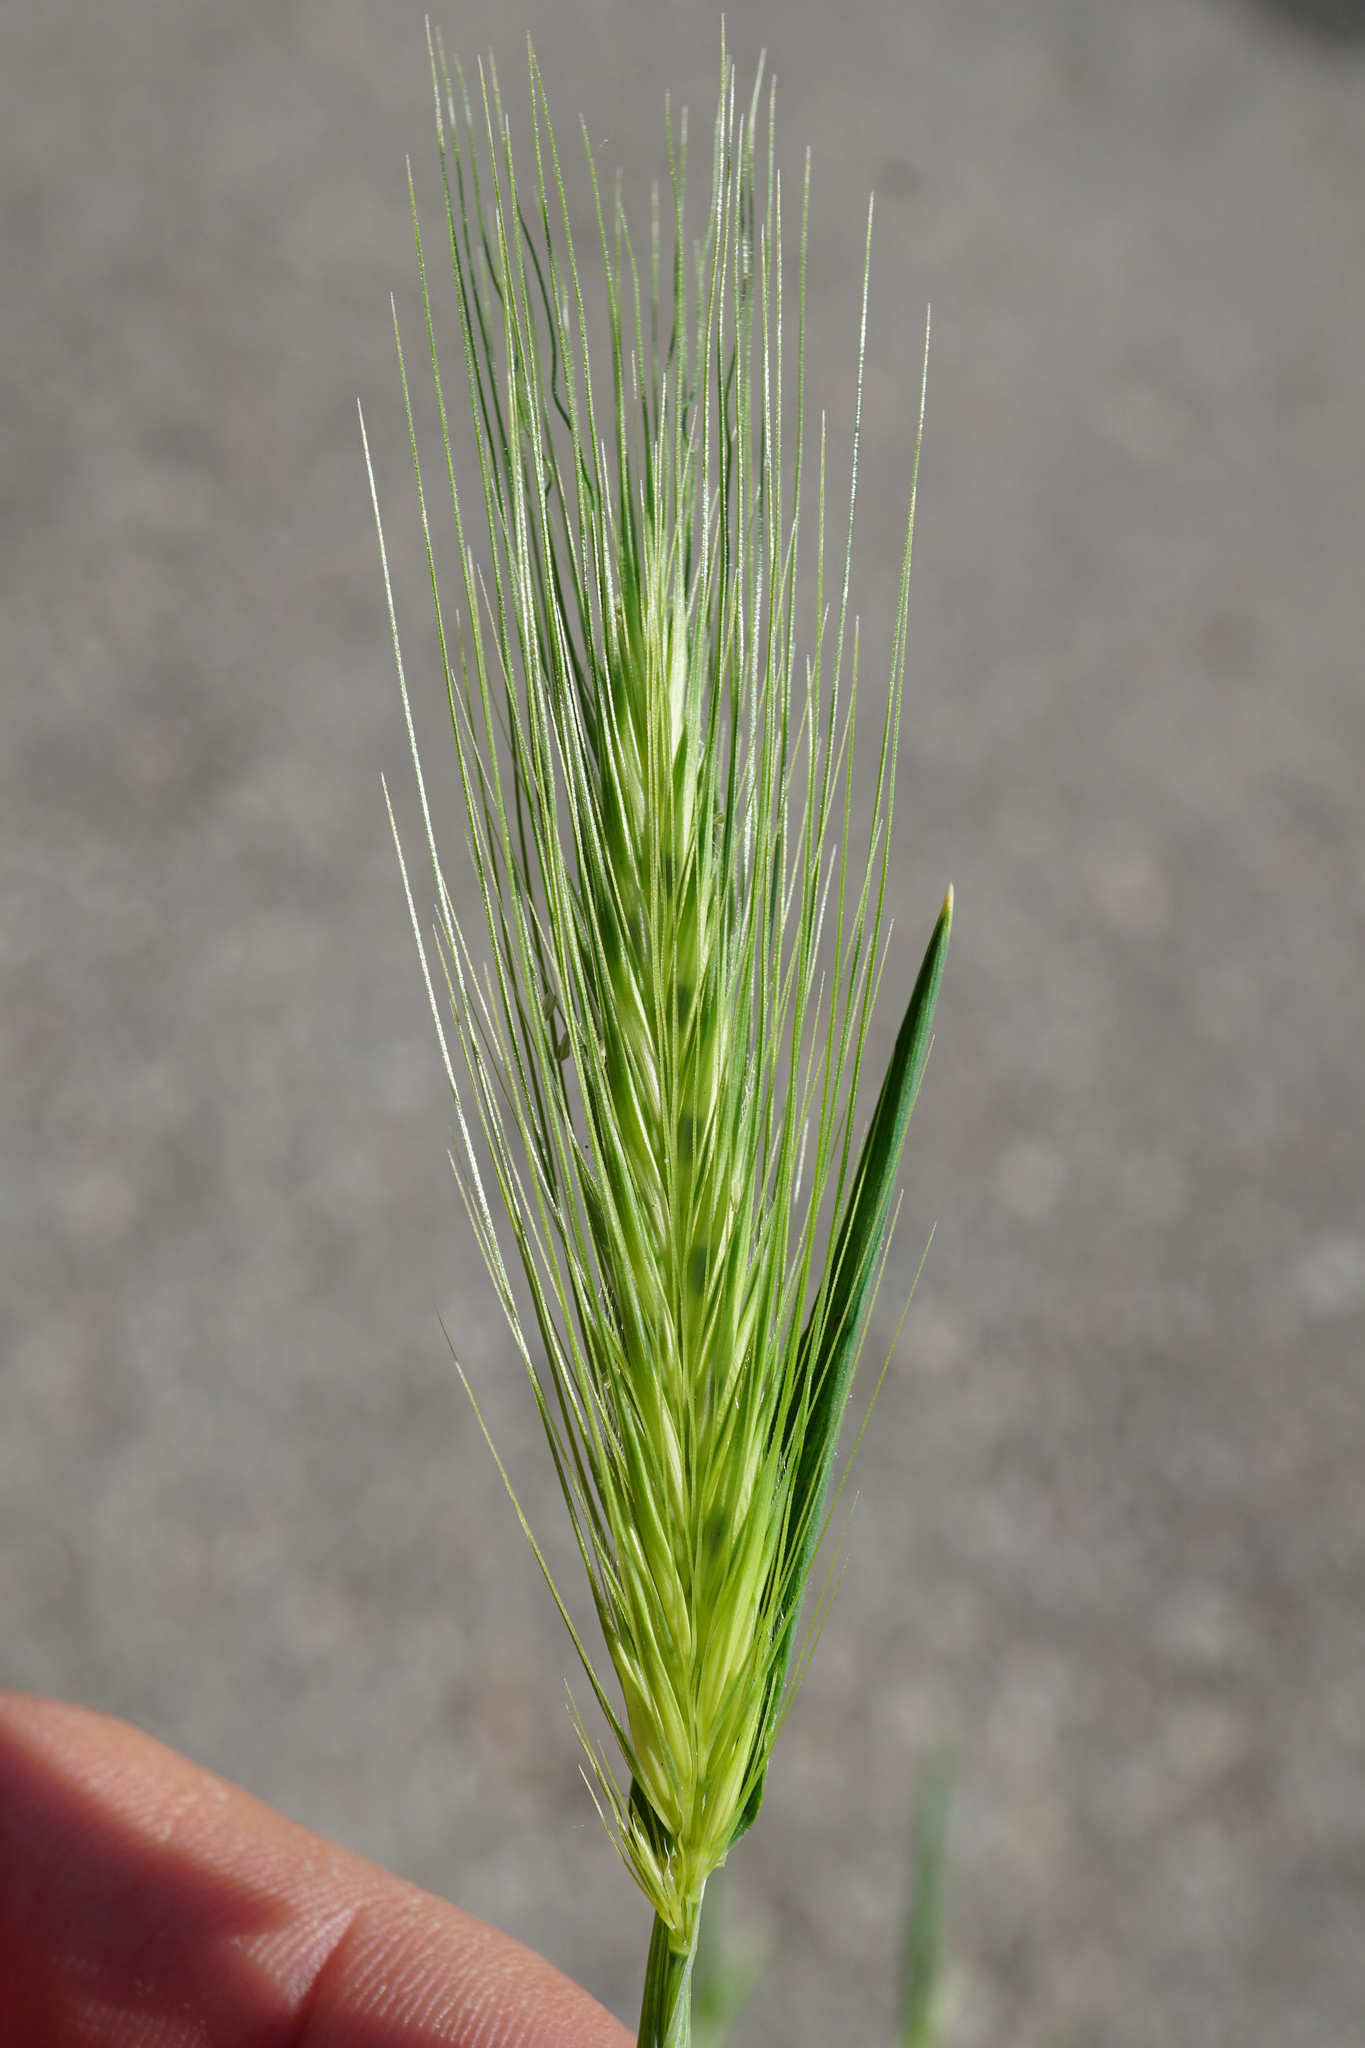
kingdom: Plantae
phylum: Tracheophyta
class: Liliopsida
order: Poales
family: Poaceae
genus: Hordeum
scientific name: Hordeum murinum
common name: Wall barley
